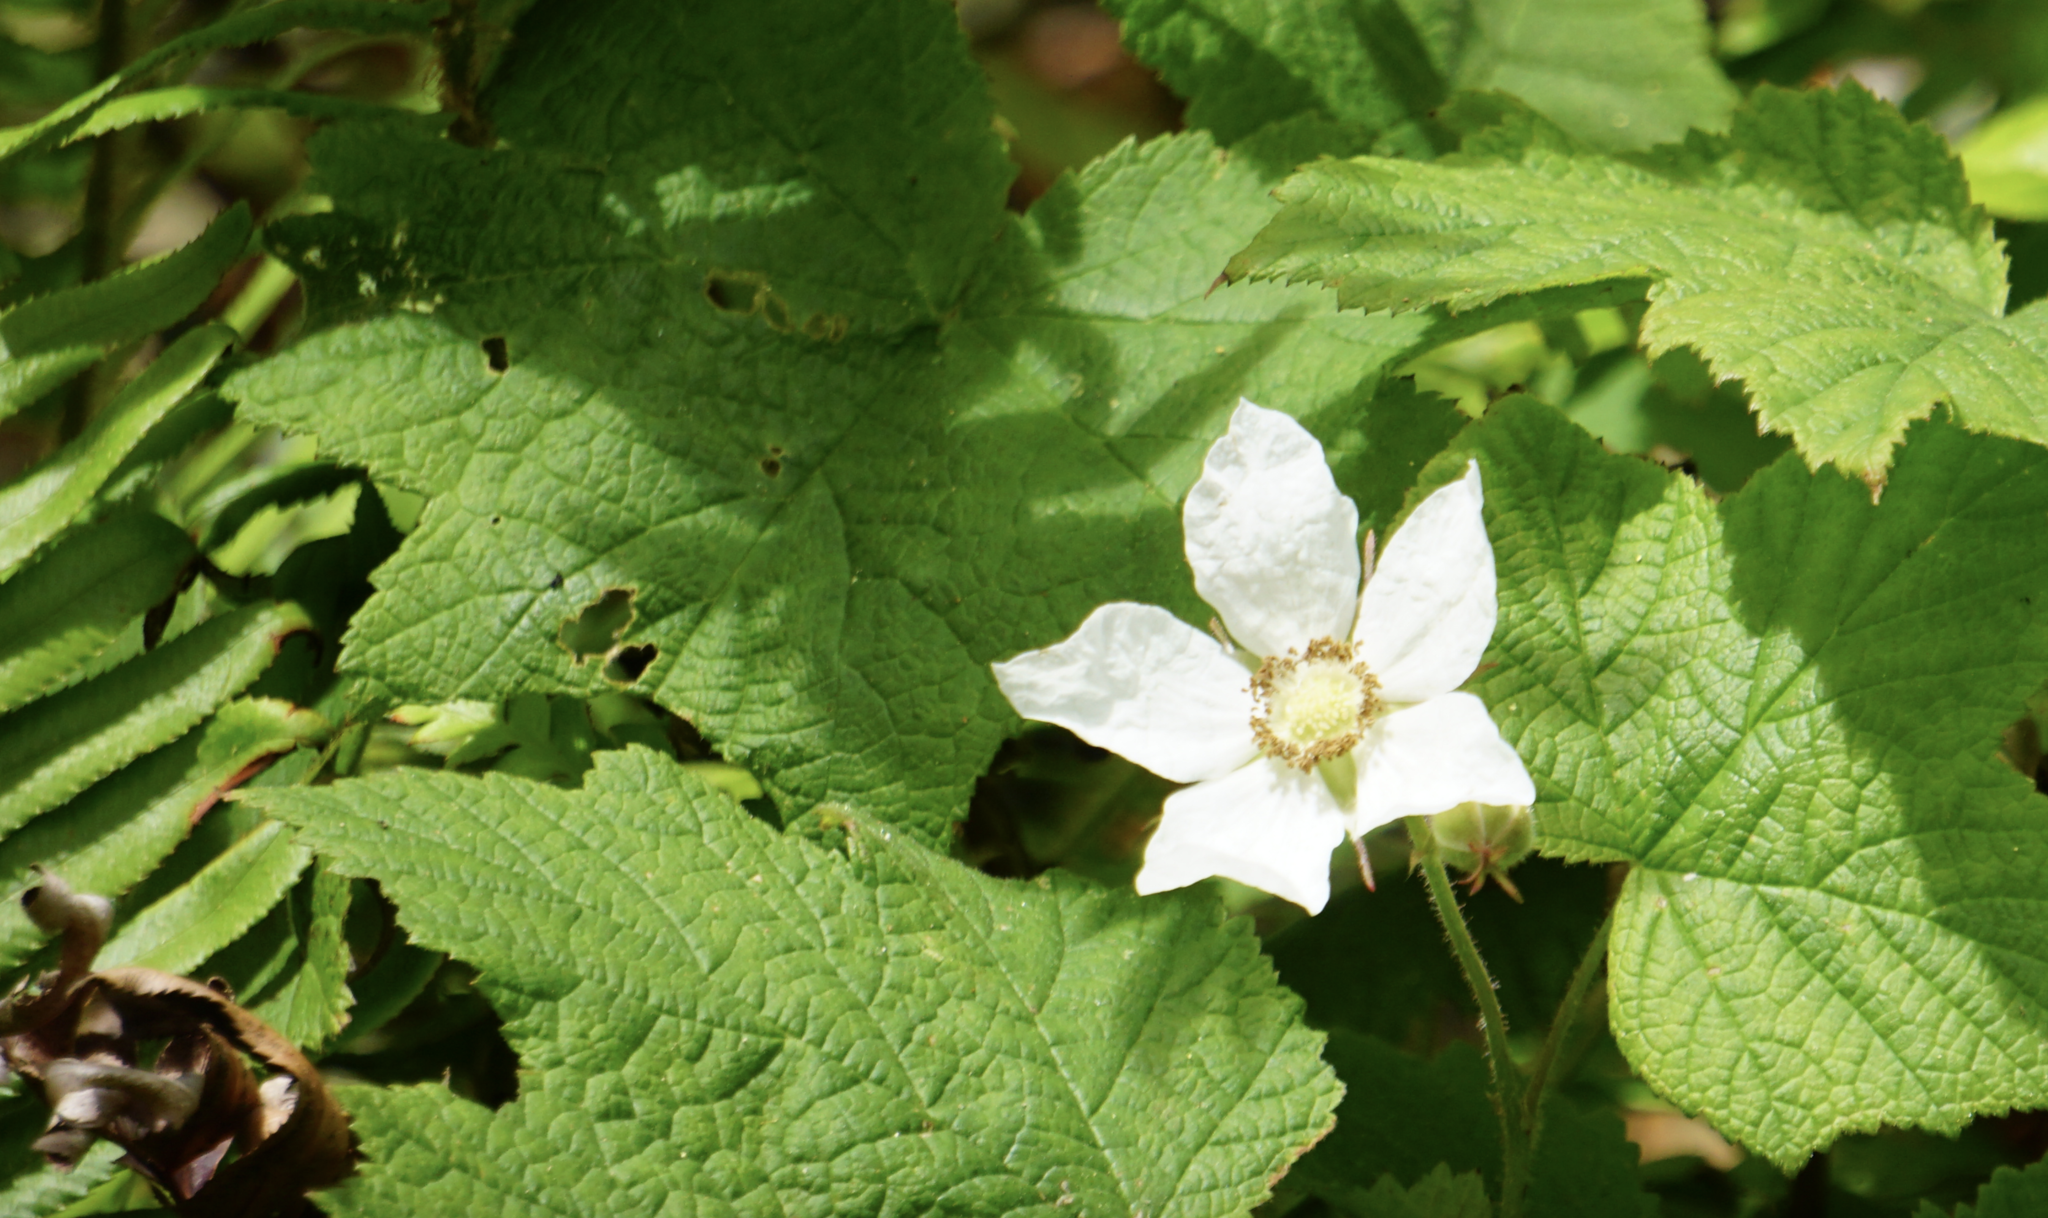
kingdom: Plantae
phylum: Tracheophyta
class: Magnoliopsida
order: Rosales
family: Rosaceae
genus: Rubus
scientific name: Rubus parviflorus
